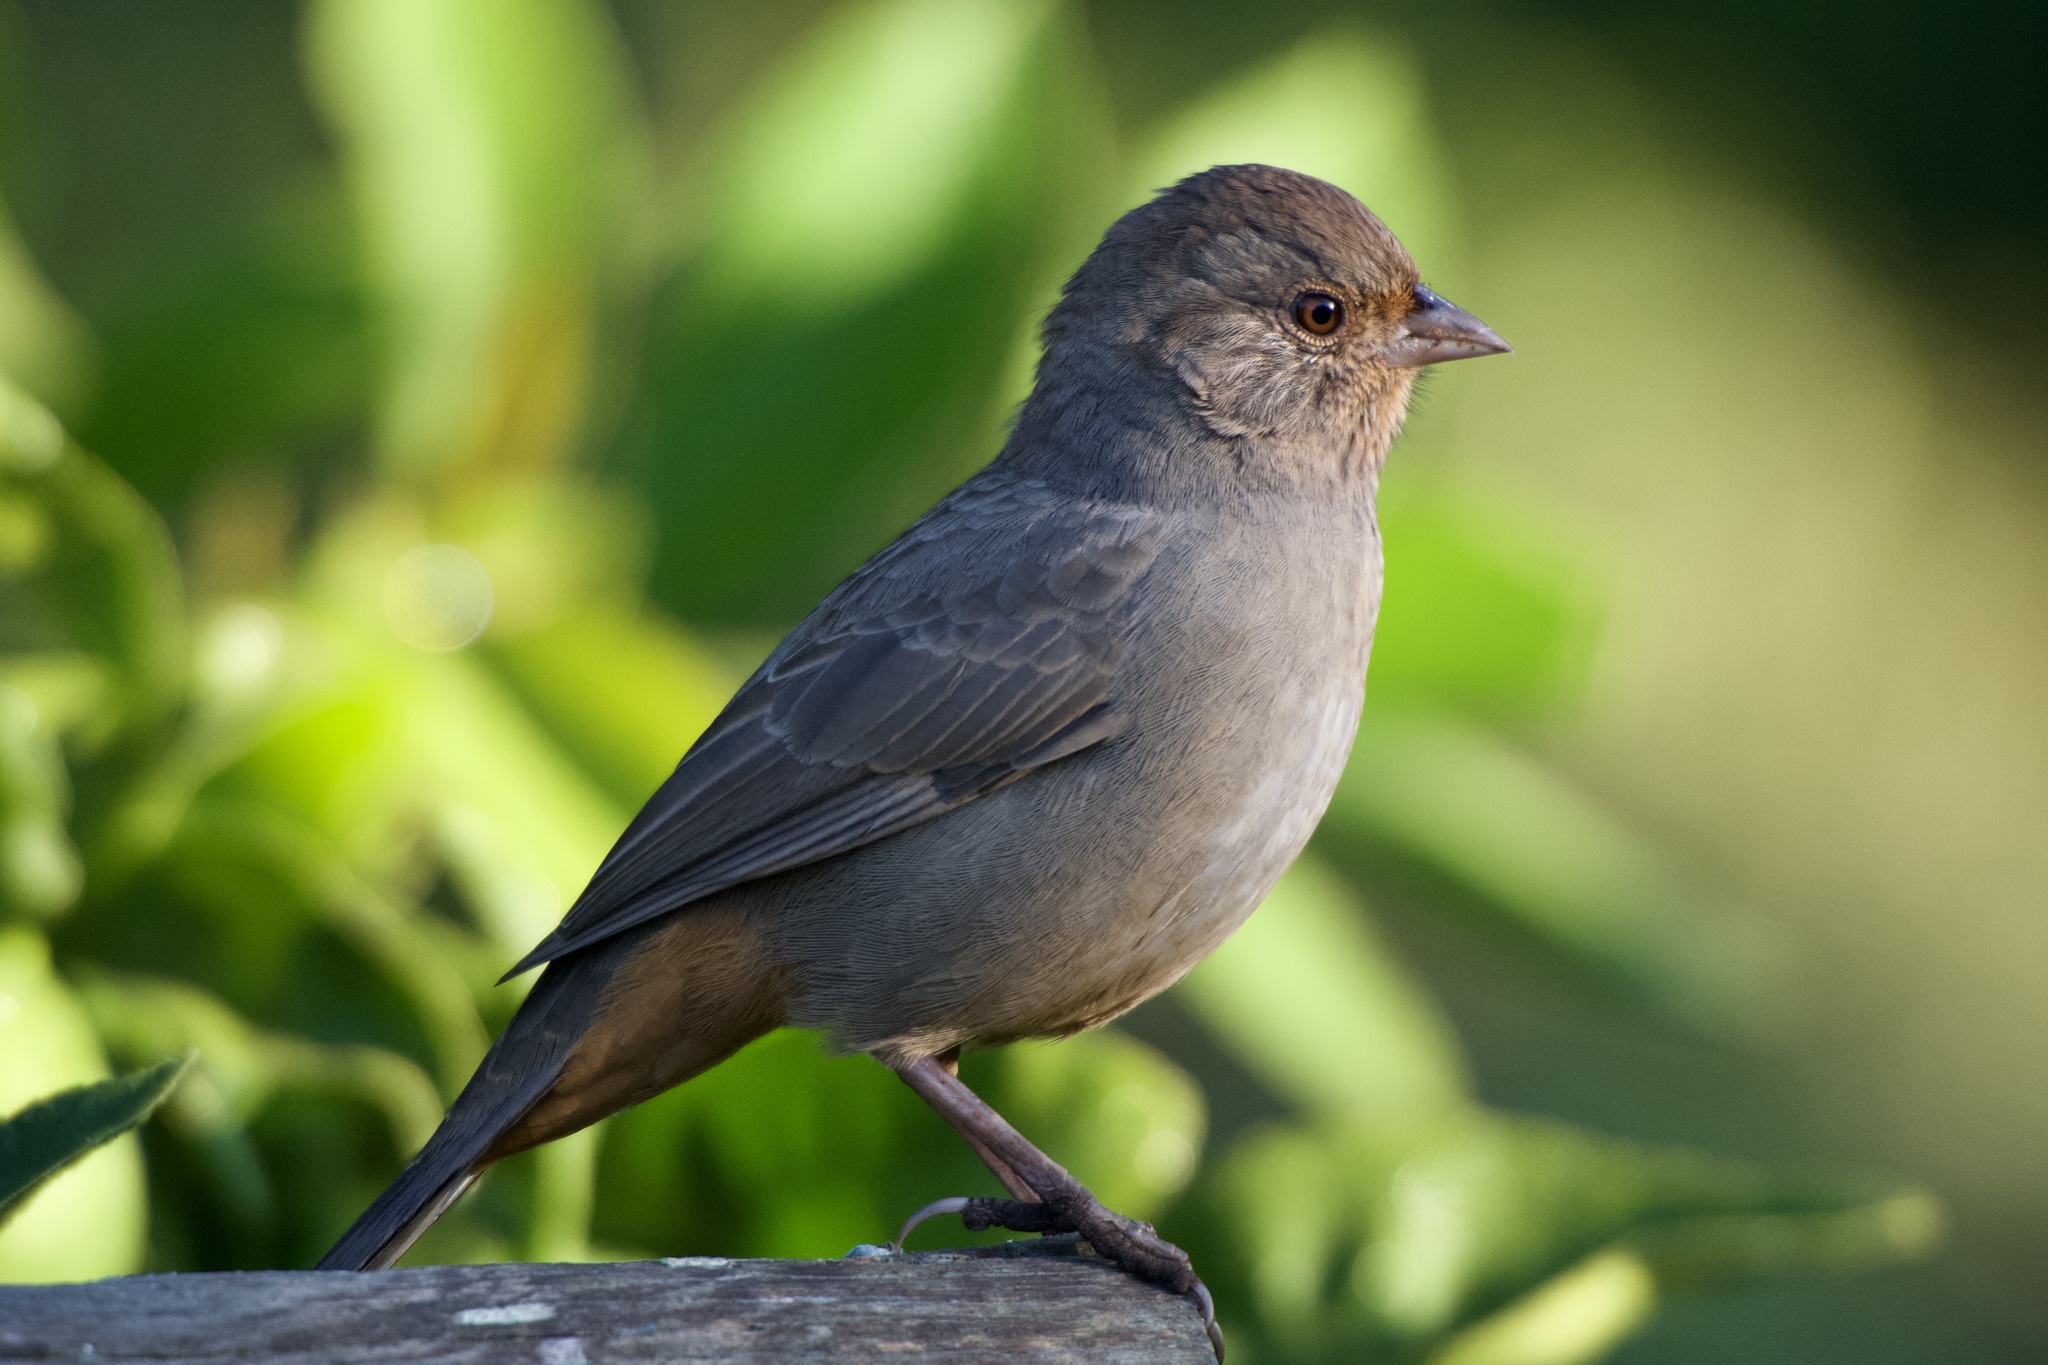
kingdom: Animalia
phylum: Chordata
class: Aves
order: Passeriformes
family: Passerellidae
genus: Melozone
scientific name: Melozone crissalis
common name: California towhee
